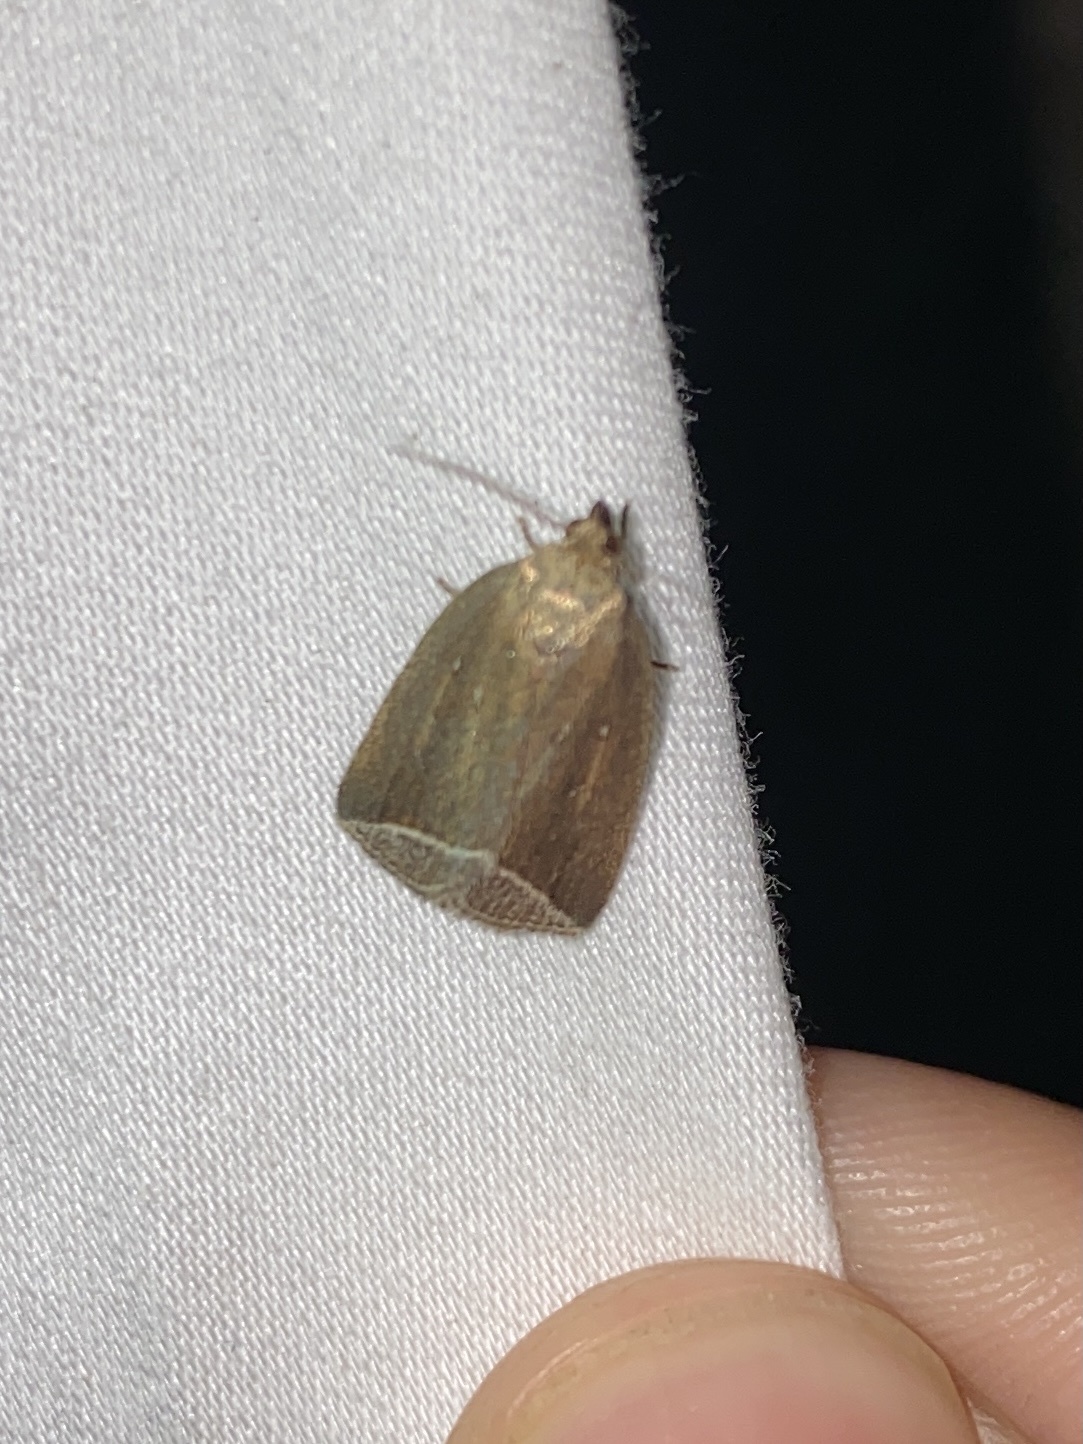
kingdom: Animalia
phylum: Arthropoda
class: Insecta
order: Lepidoptera
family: Erebidae
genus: Capis
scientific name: Capis curvata
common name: Curved halter moth
